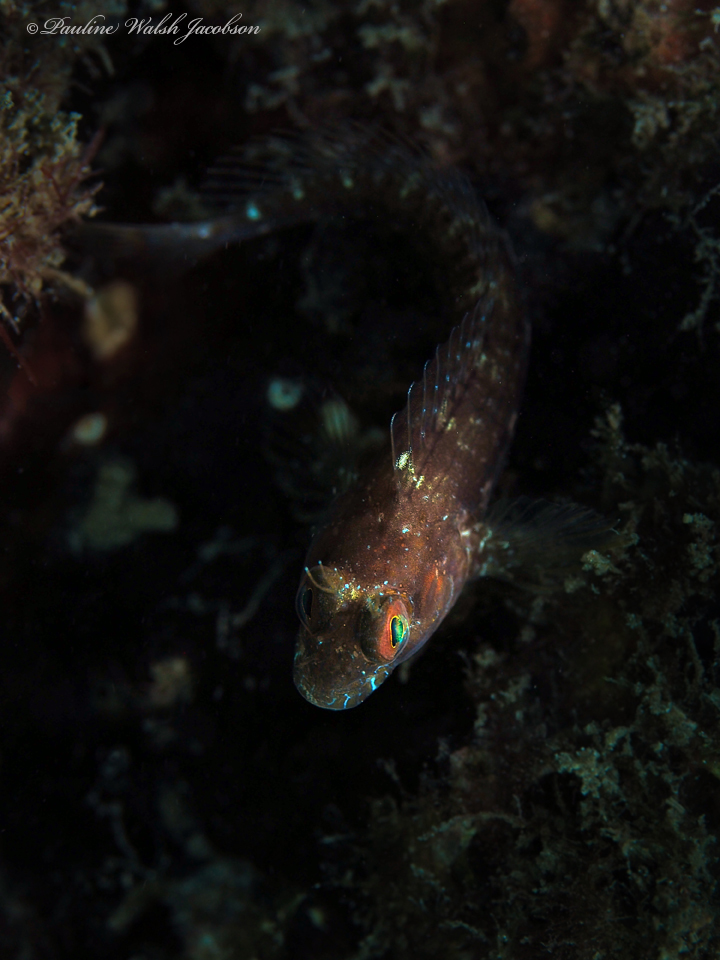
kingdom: Animalia
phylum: Chordata
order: Perciformes
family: Blenniidae
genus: Parablennius
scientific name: Parablennius marmoreus
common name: Seaweed blenny
